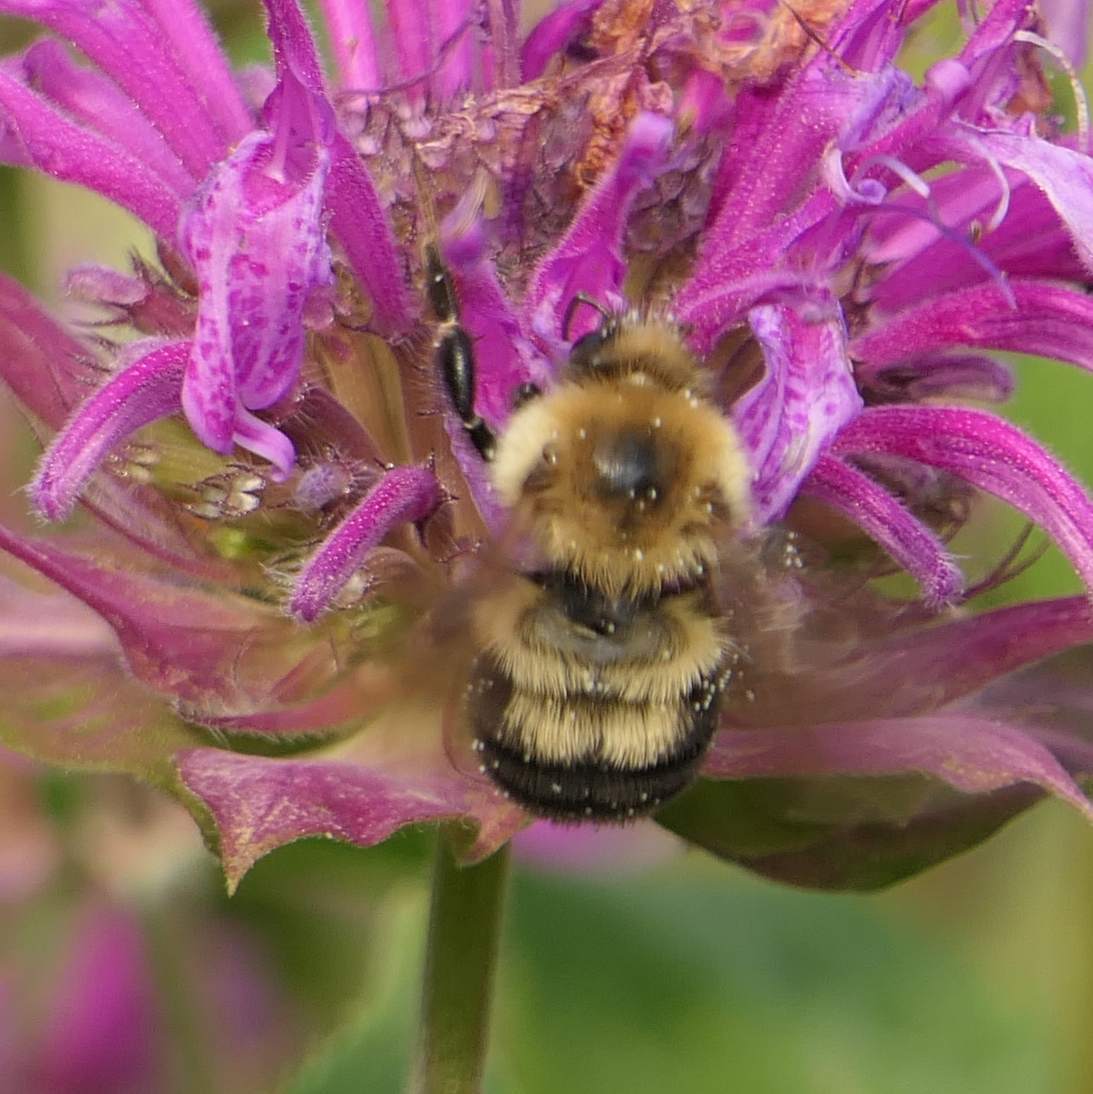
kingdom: Animalia
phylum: Arthropoda
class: Insecta
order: Hymenoptera
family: Apidae
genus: Bombus
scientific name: Bombus bimaculatus
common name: Two-spotted bumble bee
